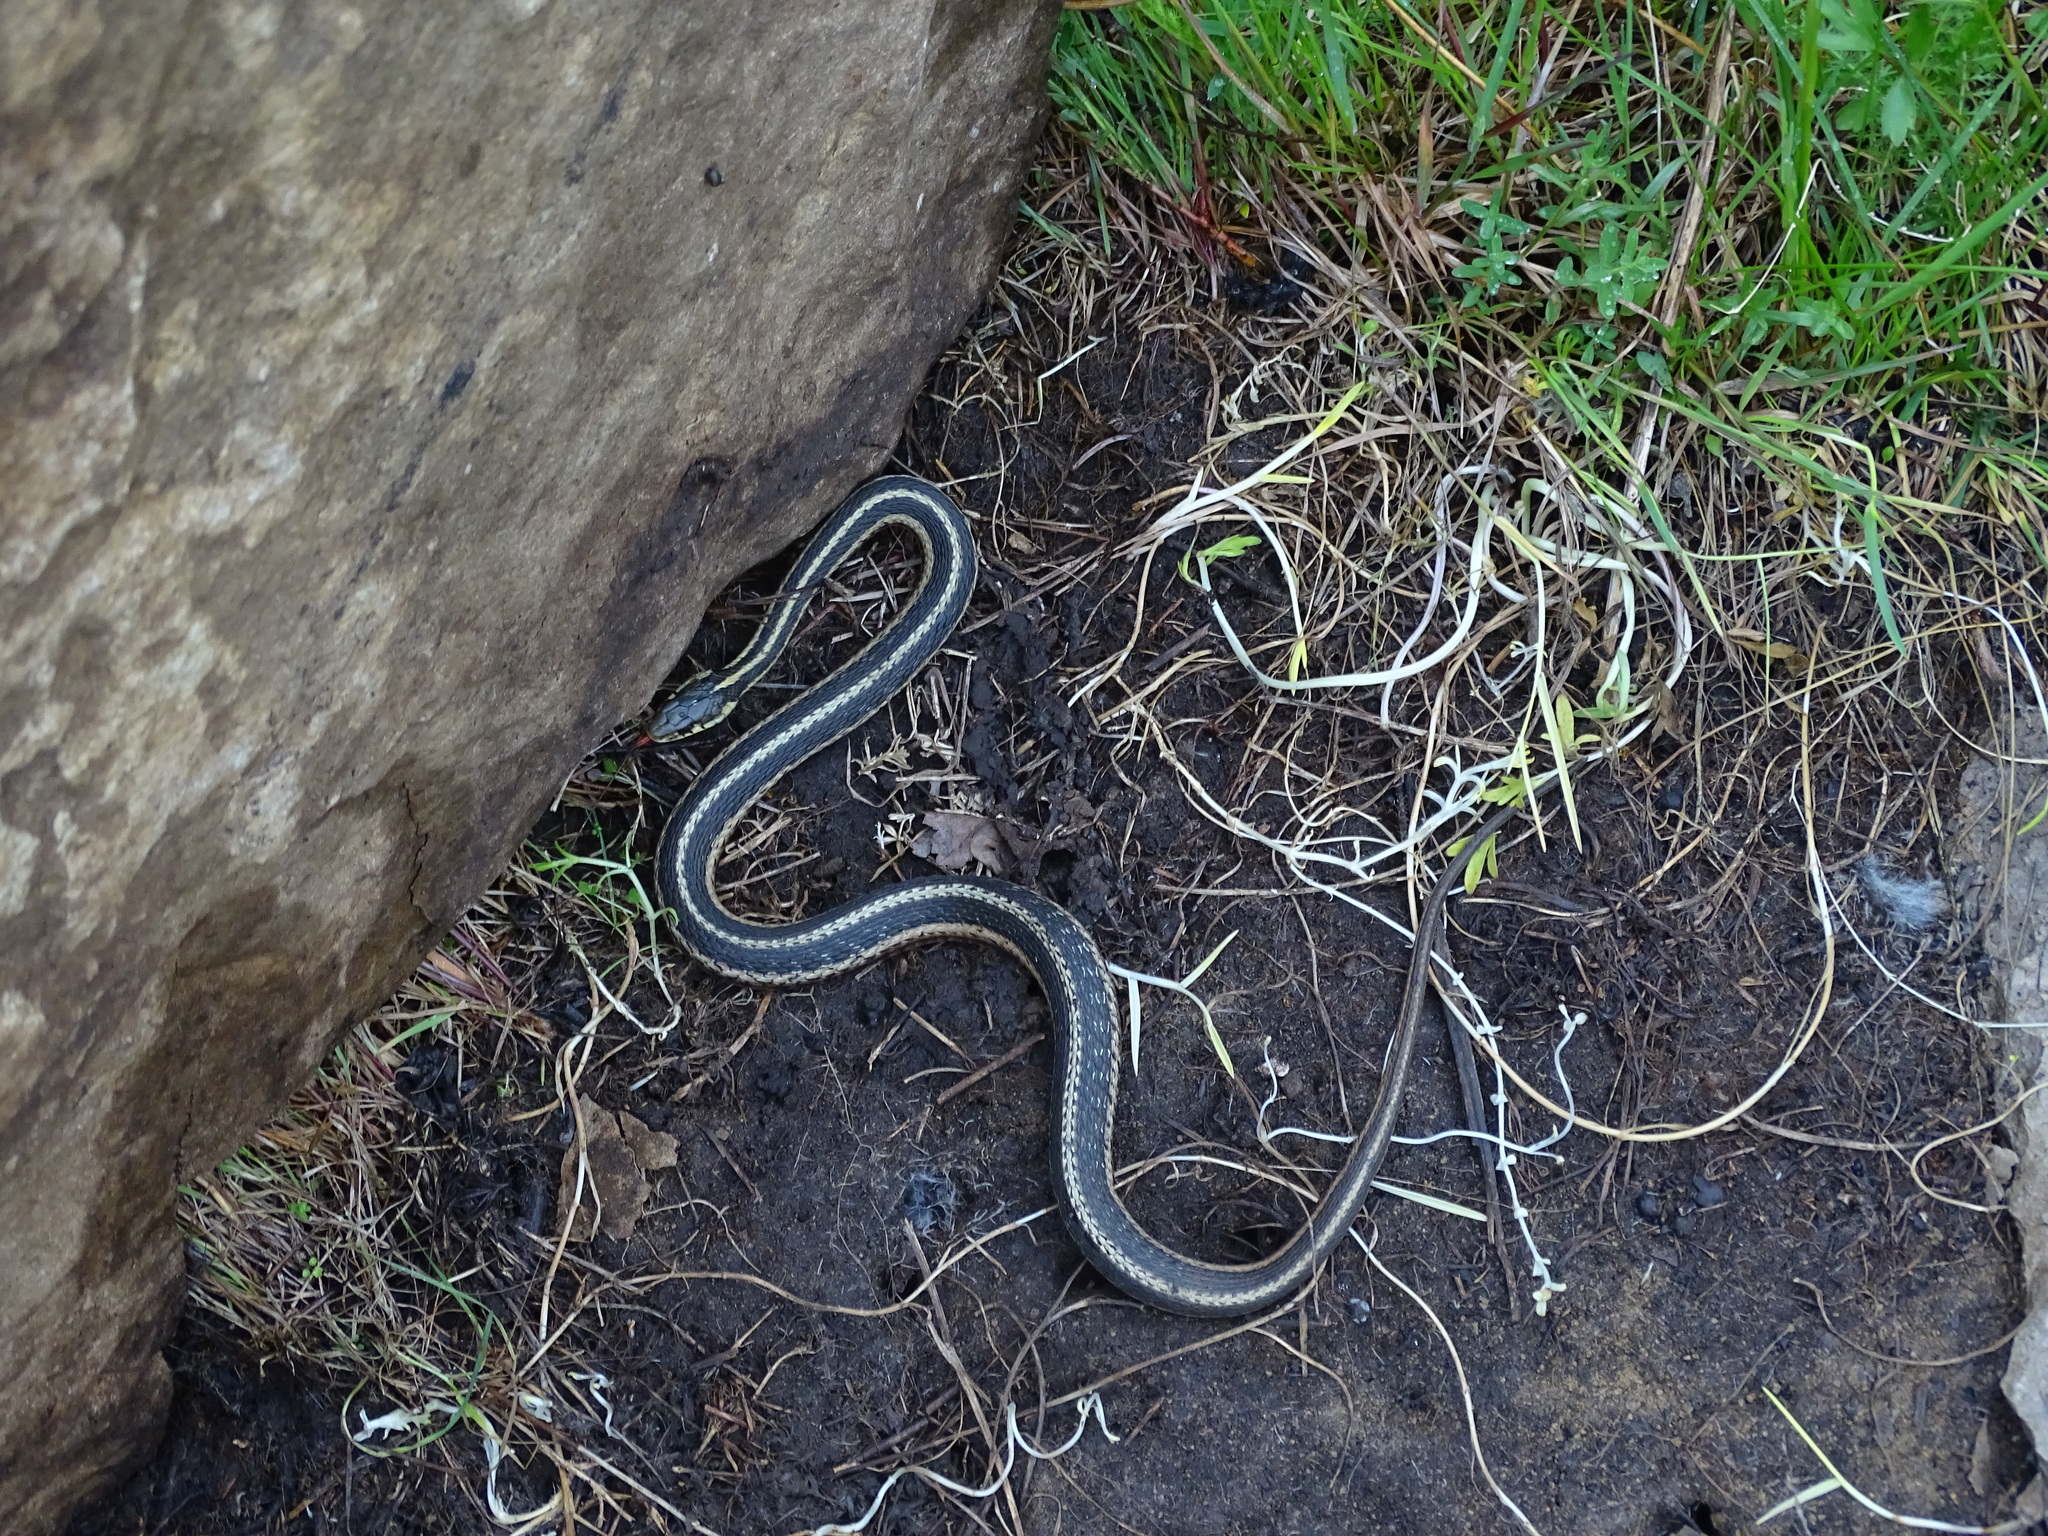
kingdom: Animalia
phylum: Chordata
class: Squamata
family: Colubridae
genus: Thamnophis
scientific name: Thamnophis sirtalis
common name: Common garter snake
